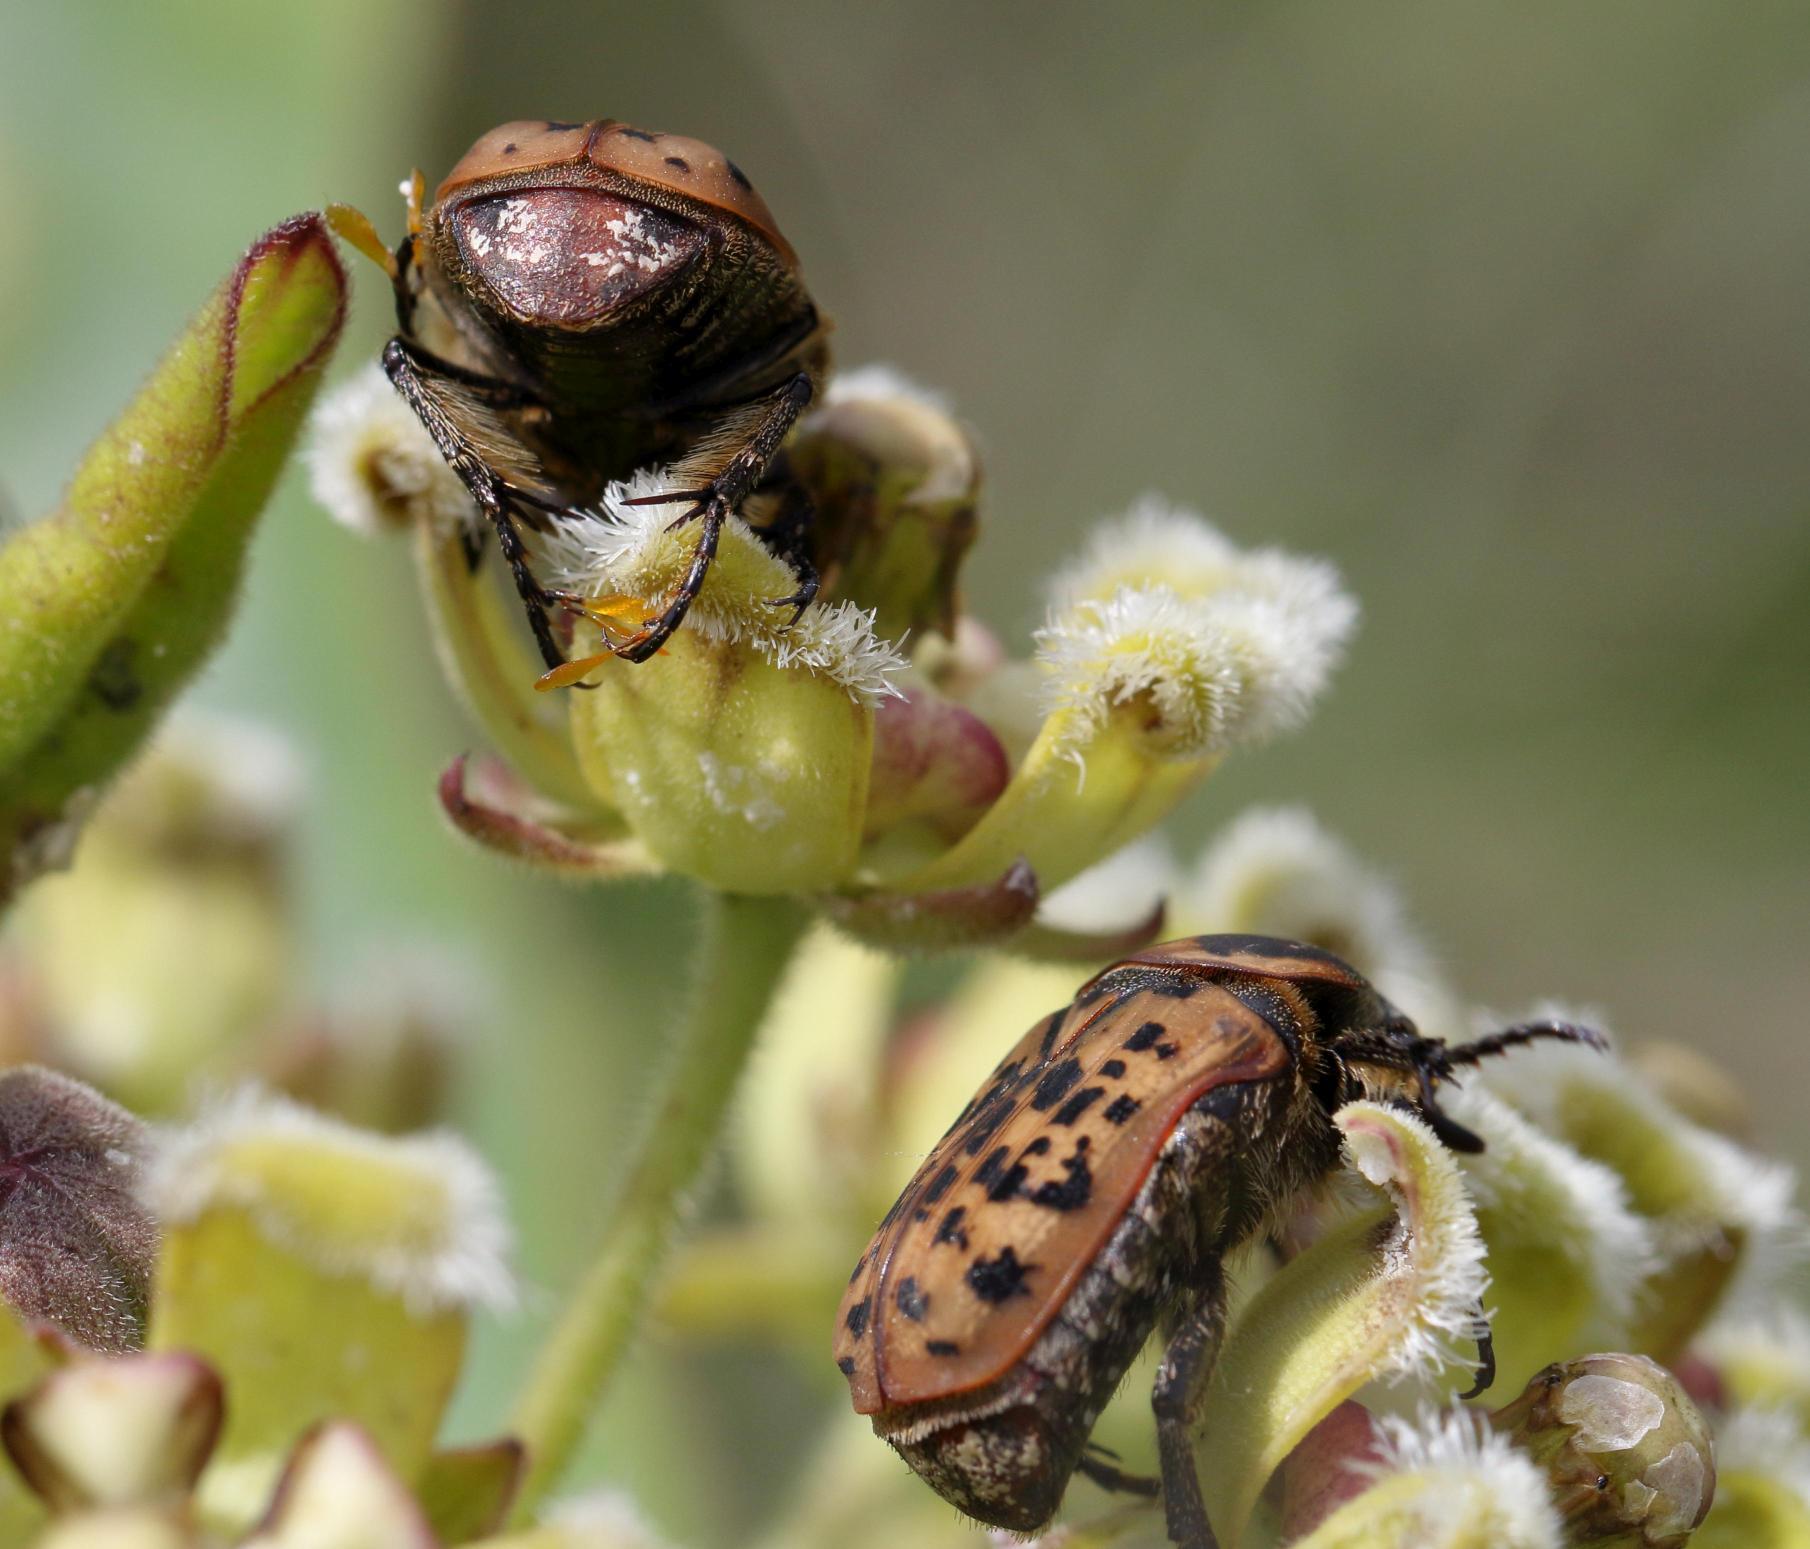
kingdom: Plantae
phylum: Tracheophyta
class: Magnoliopsida
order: Gentianales
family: Apocynaceae
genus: Xysmalobium
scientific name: Xysmalobium undulatum
